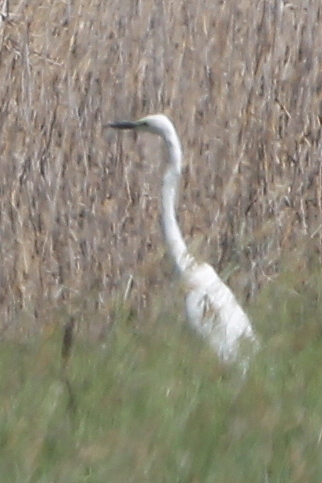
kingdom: Animalia
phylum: Chordata
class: Aves
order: Pelecaniformes
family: Ardeidae
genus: Ardea
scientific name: Ardea alba
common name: Great egret
